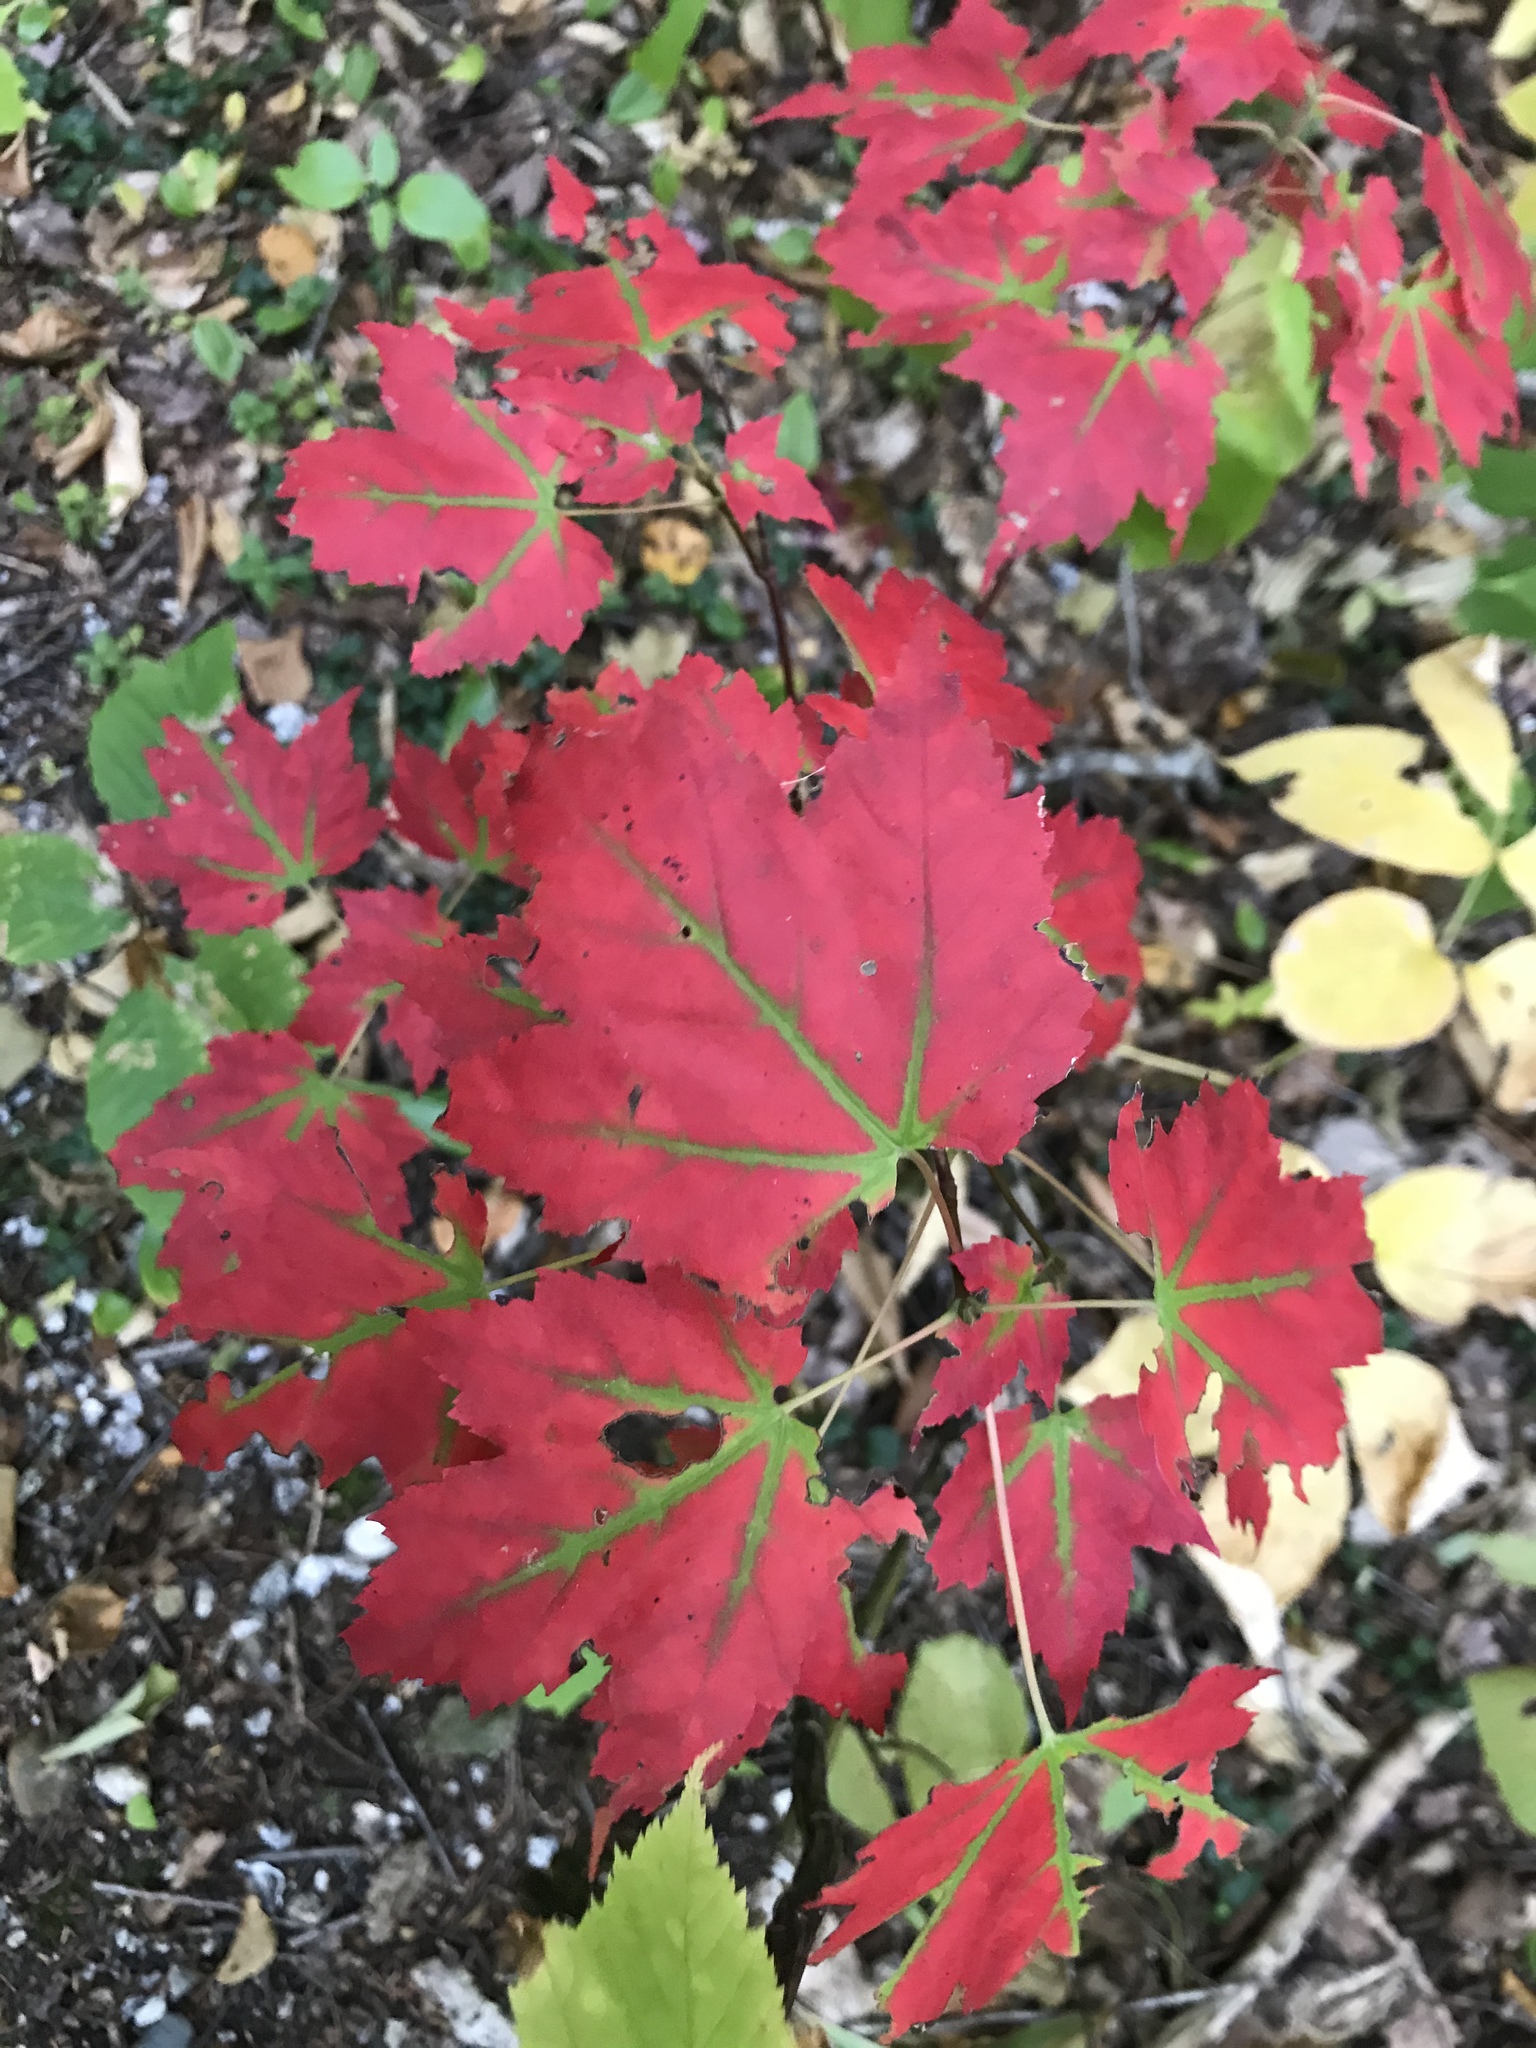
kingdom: Plantae
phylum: Tracheophyta
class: Magnoliopsida
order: Sapindales
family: Sapindaceae
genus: Acer
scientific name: Acer rubrum
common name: Red maple
